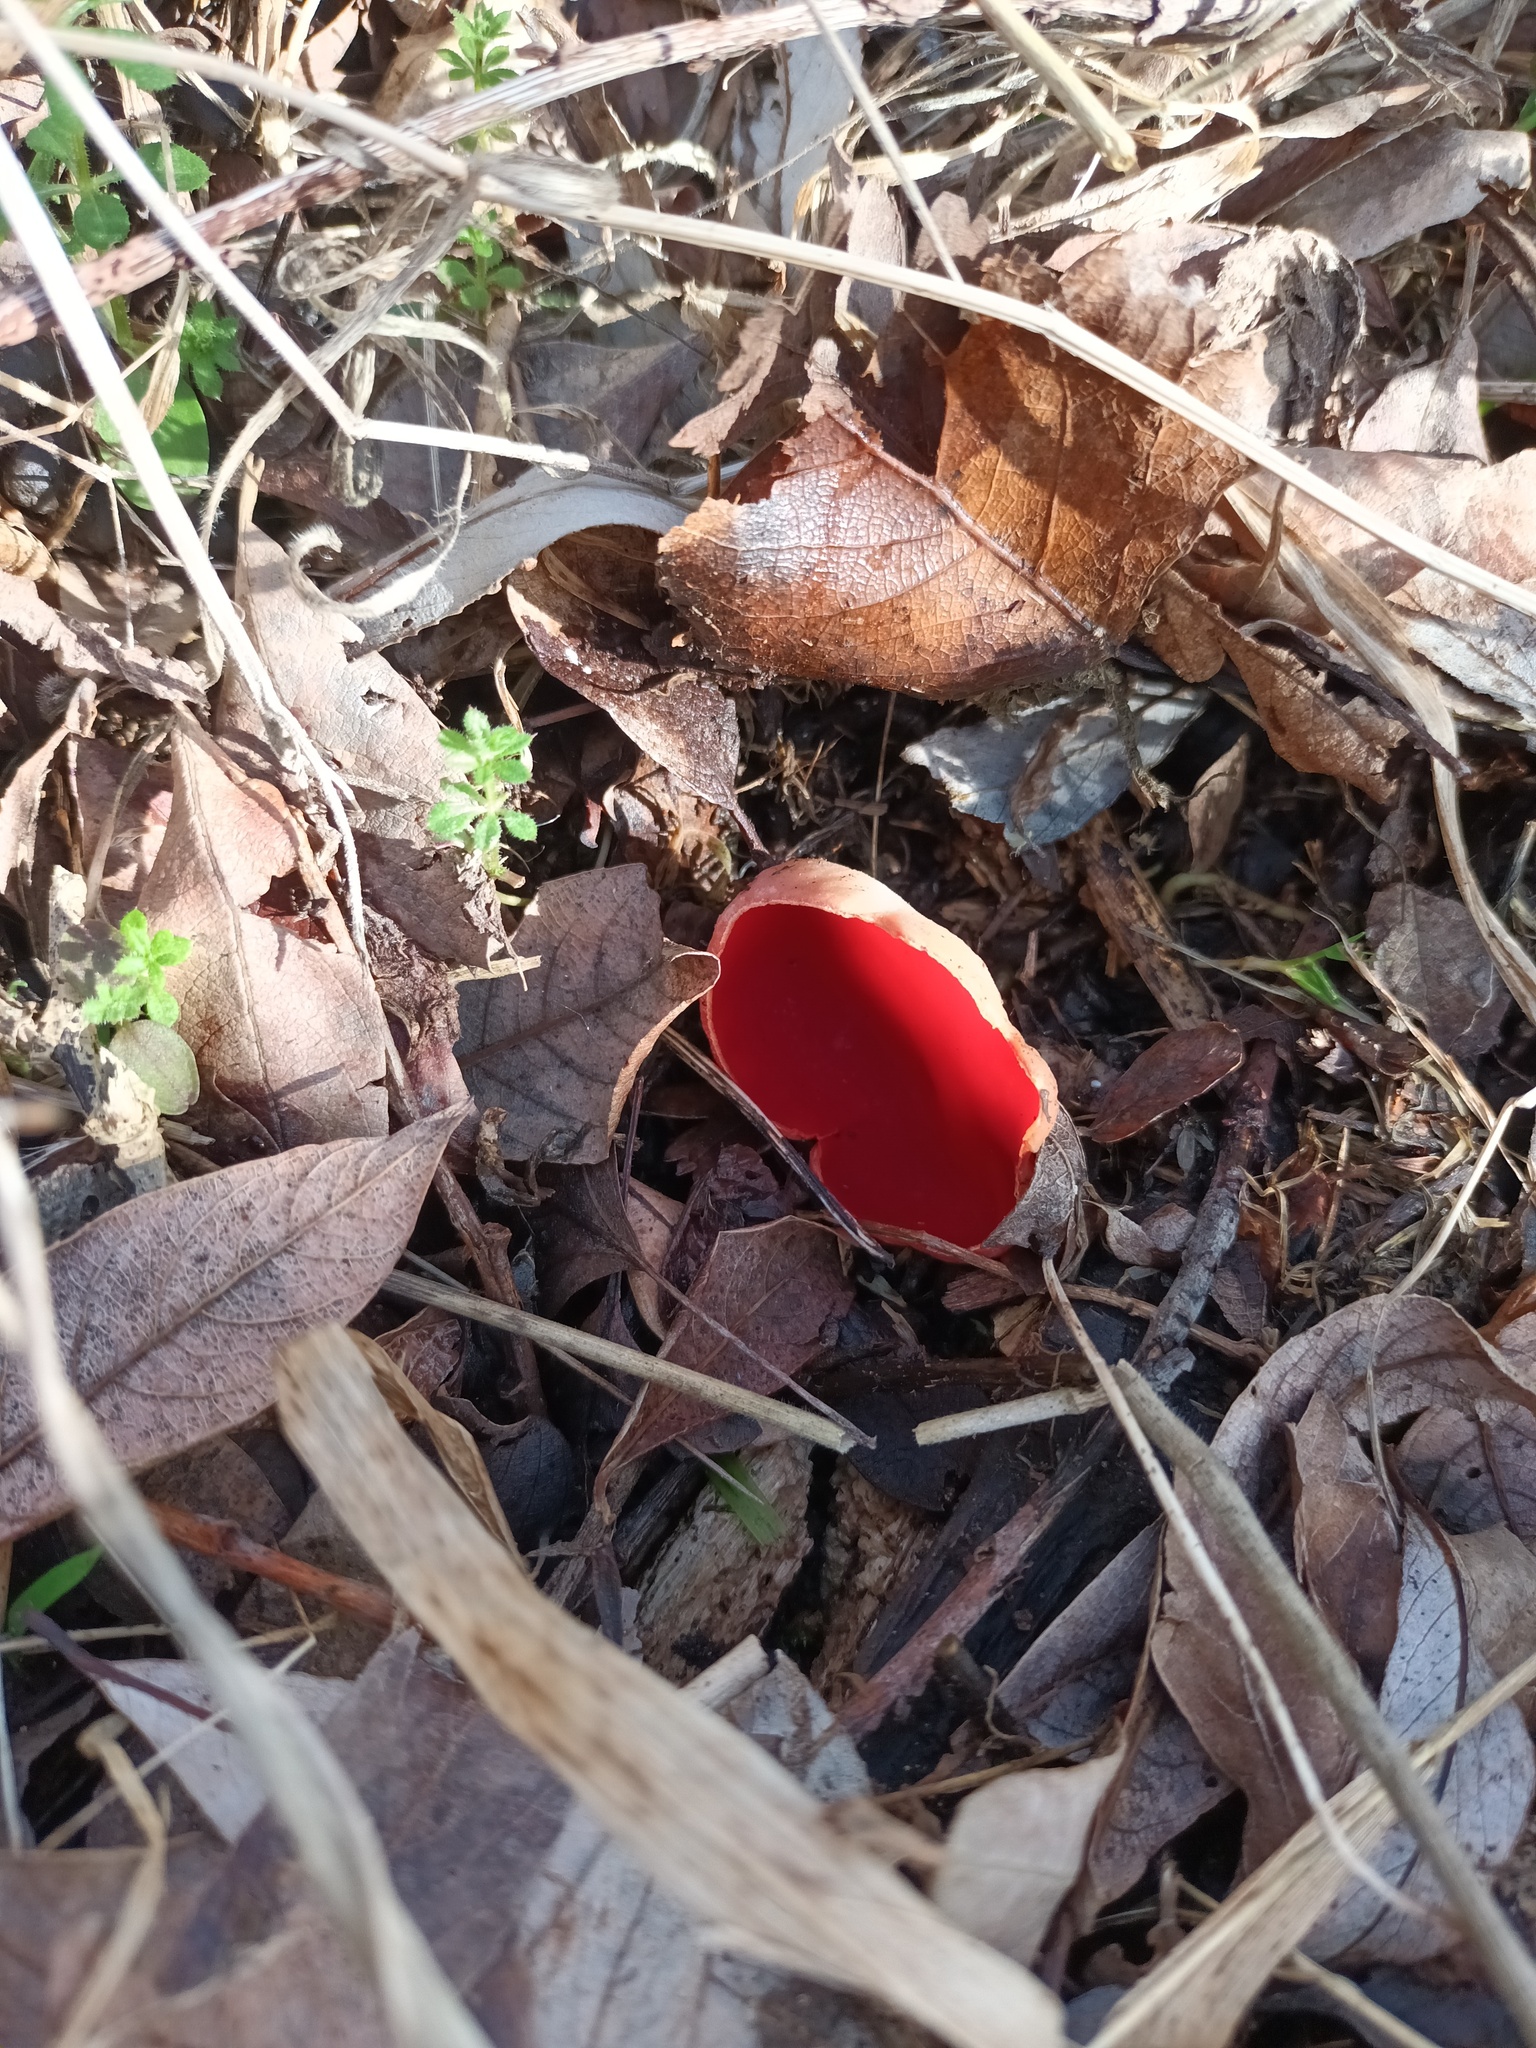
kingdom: Fungi
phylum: Ascomycota
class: Pezizomycetes
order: Pezizales
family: Sarcoscyphaceae
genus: Sarcoscypha
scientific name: Sarcoscypha
